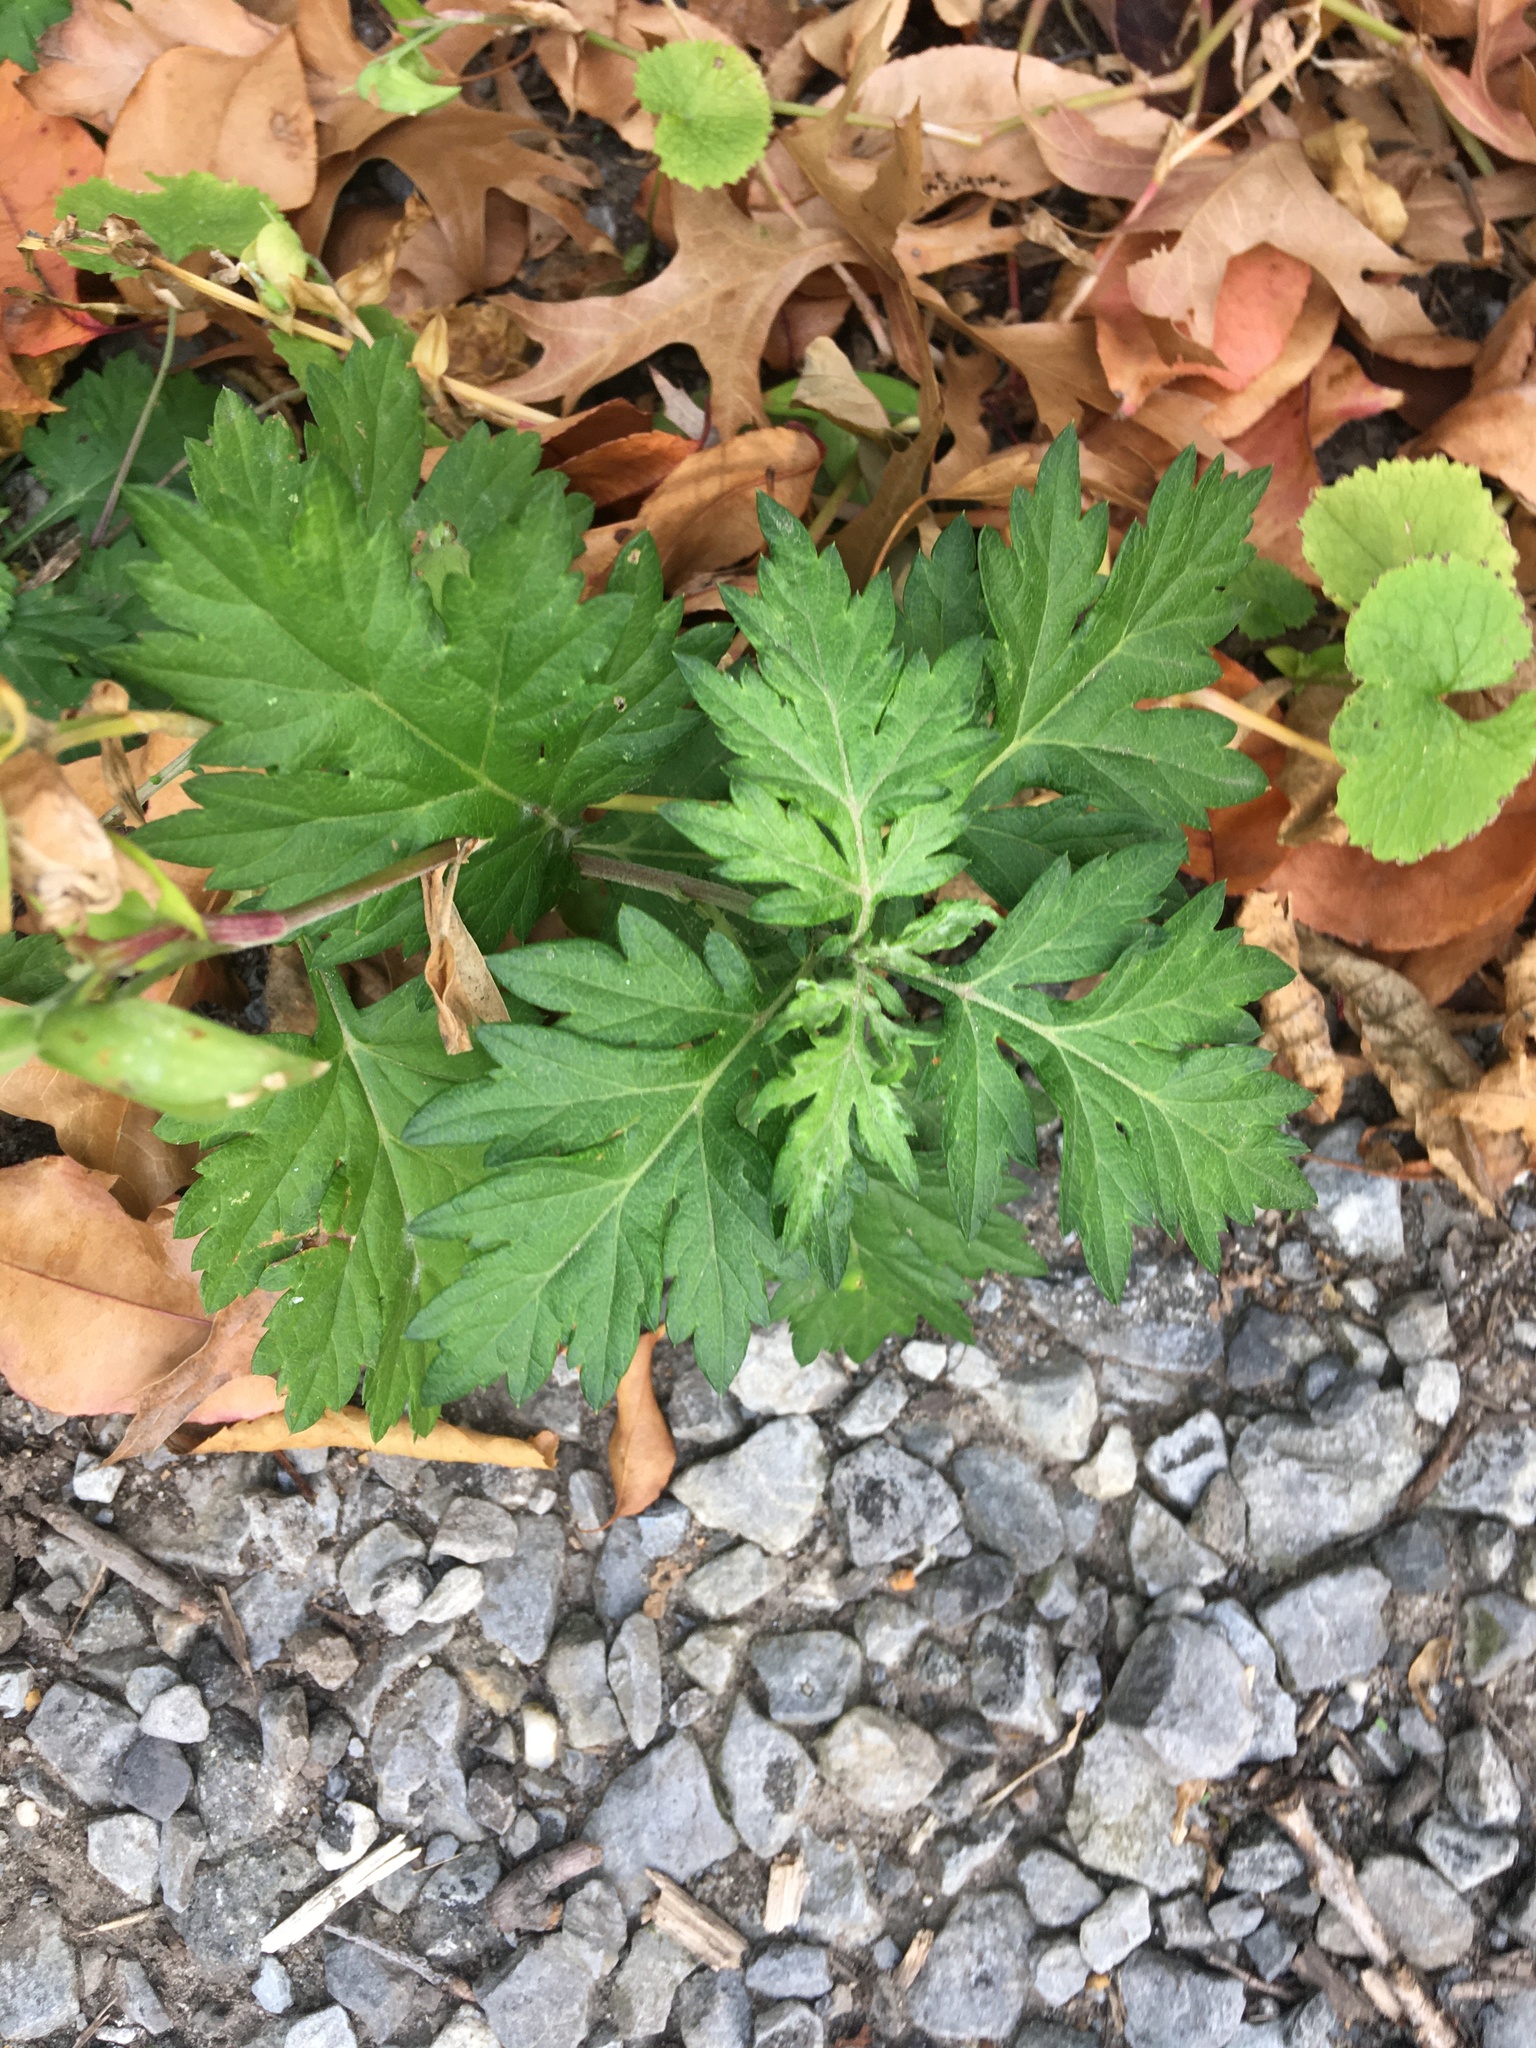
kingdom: Plantae
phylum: Tracheophyta
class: Magnoliopsida
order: Asterales
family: Asteraceae
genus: Artemisia
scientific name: Artemisia vulgaris
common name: Mugwort
